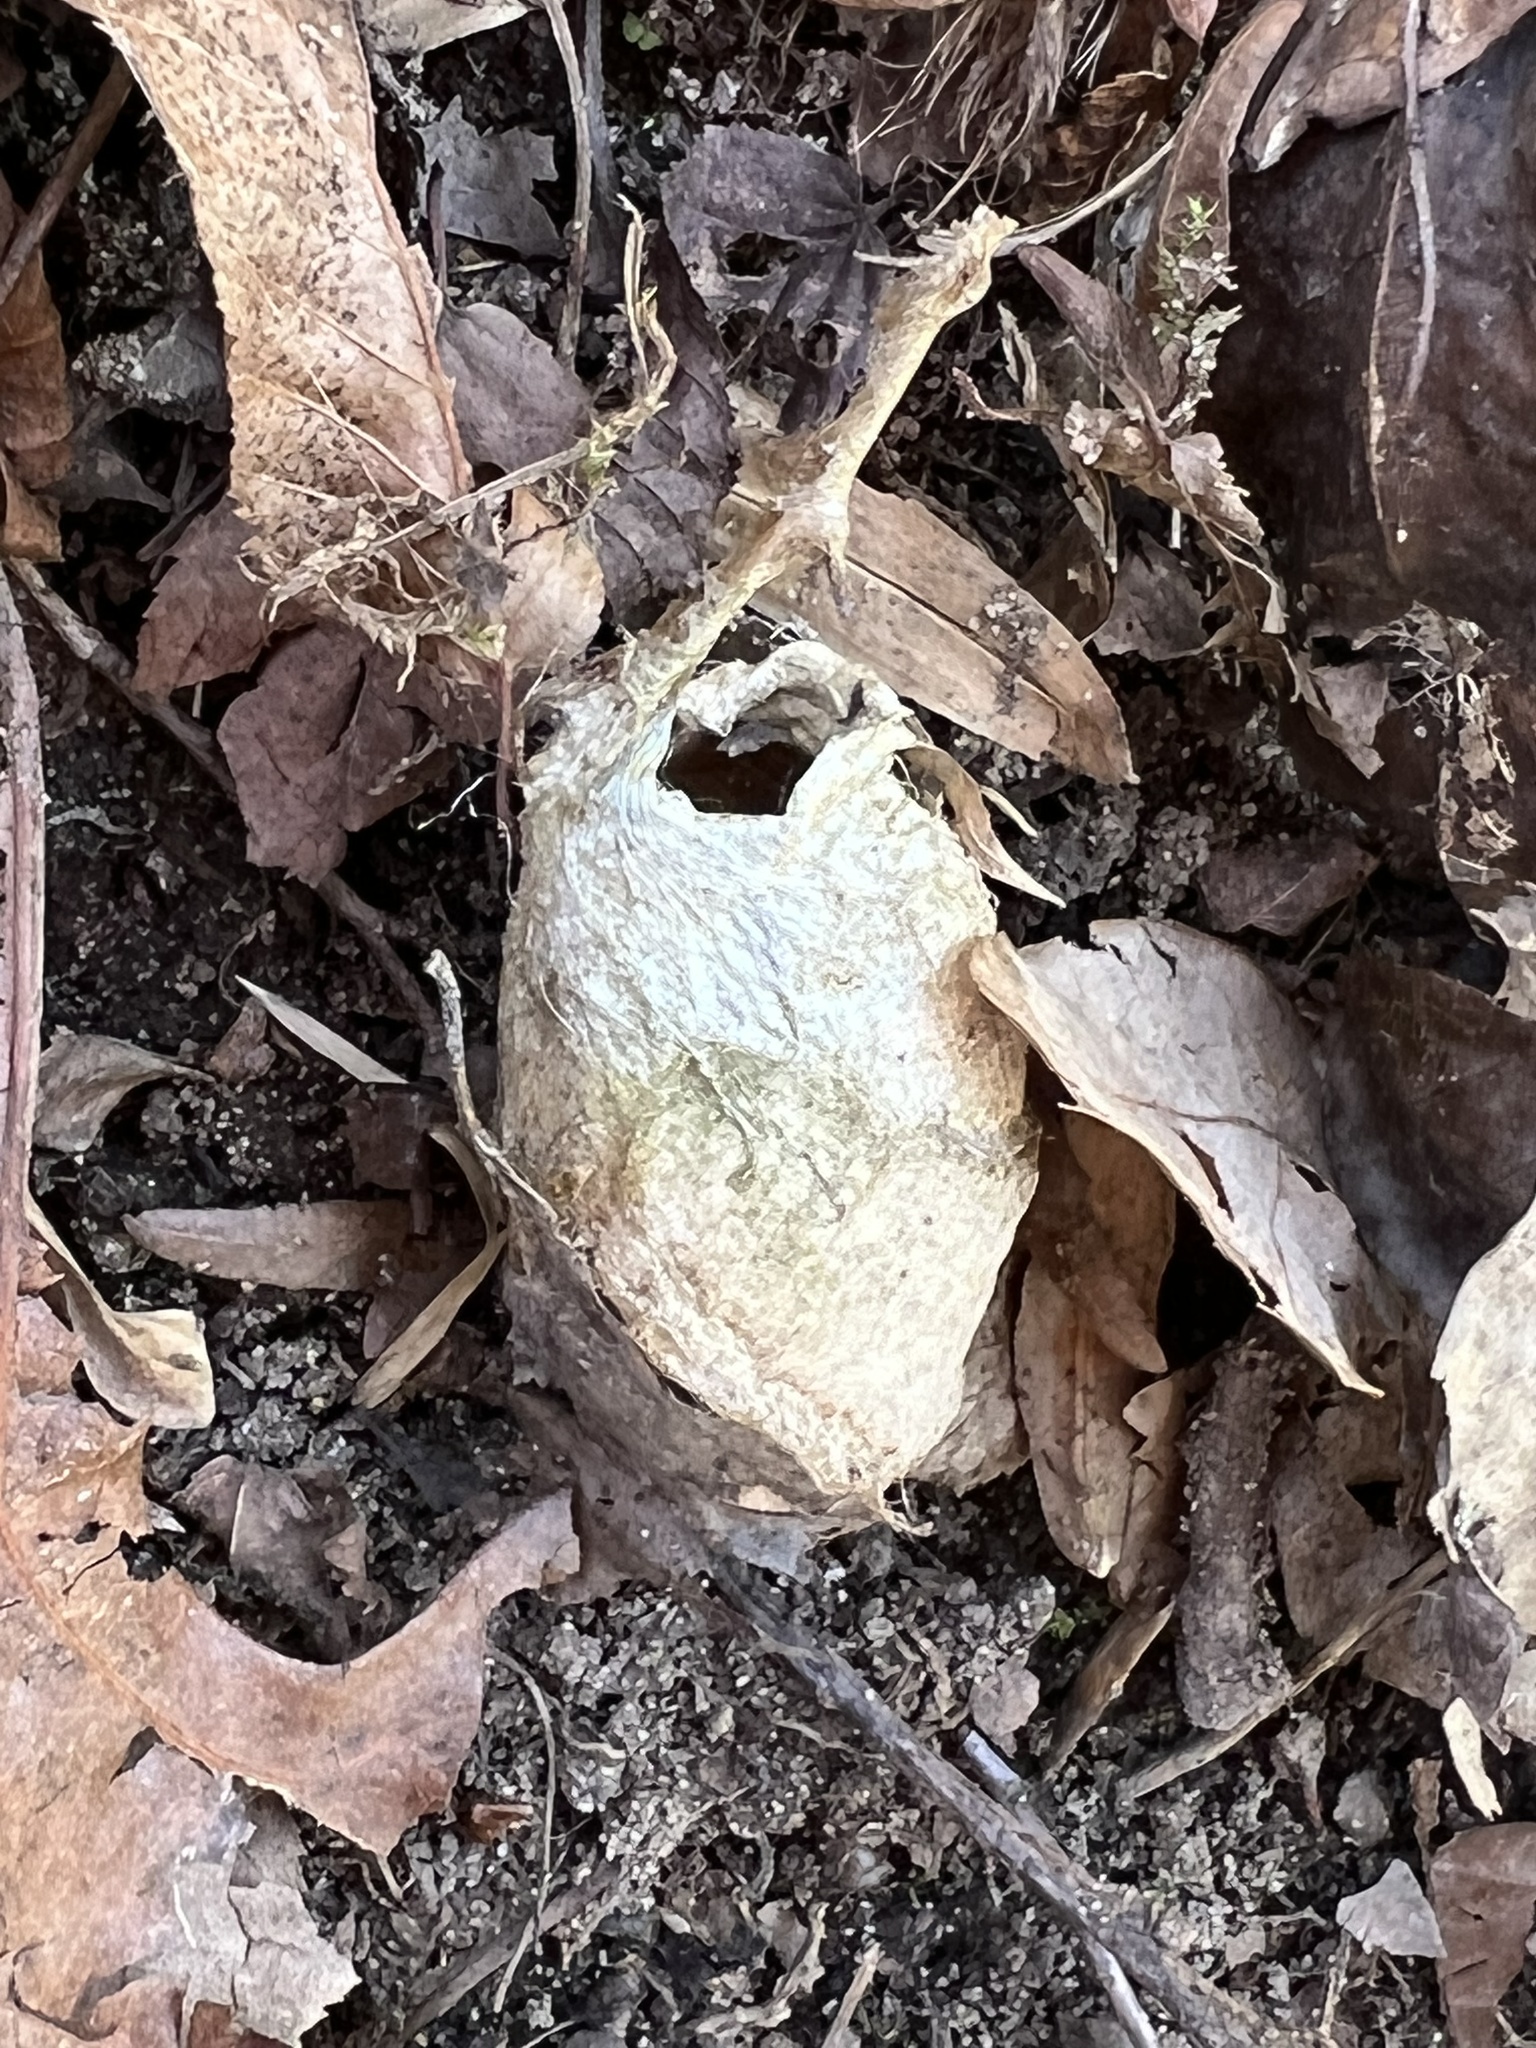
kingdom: Animalia
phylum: Arthropoda
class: Insecta
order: Lepidoptera
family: Saturniidae
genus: Antheraea
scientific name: Antheraea polyphemus
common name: Polyphemus moth
